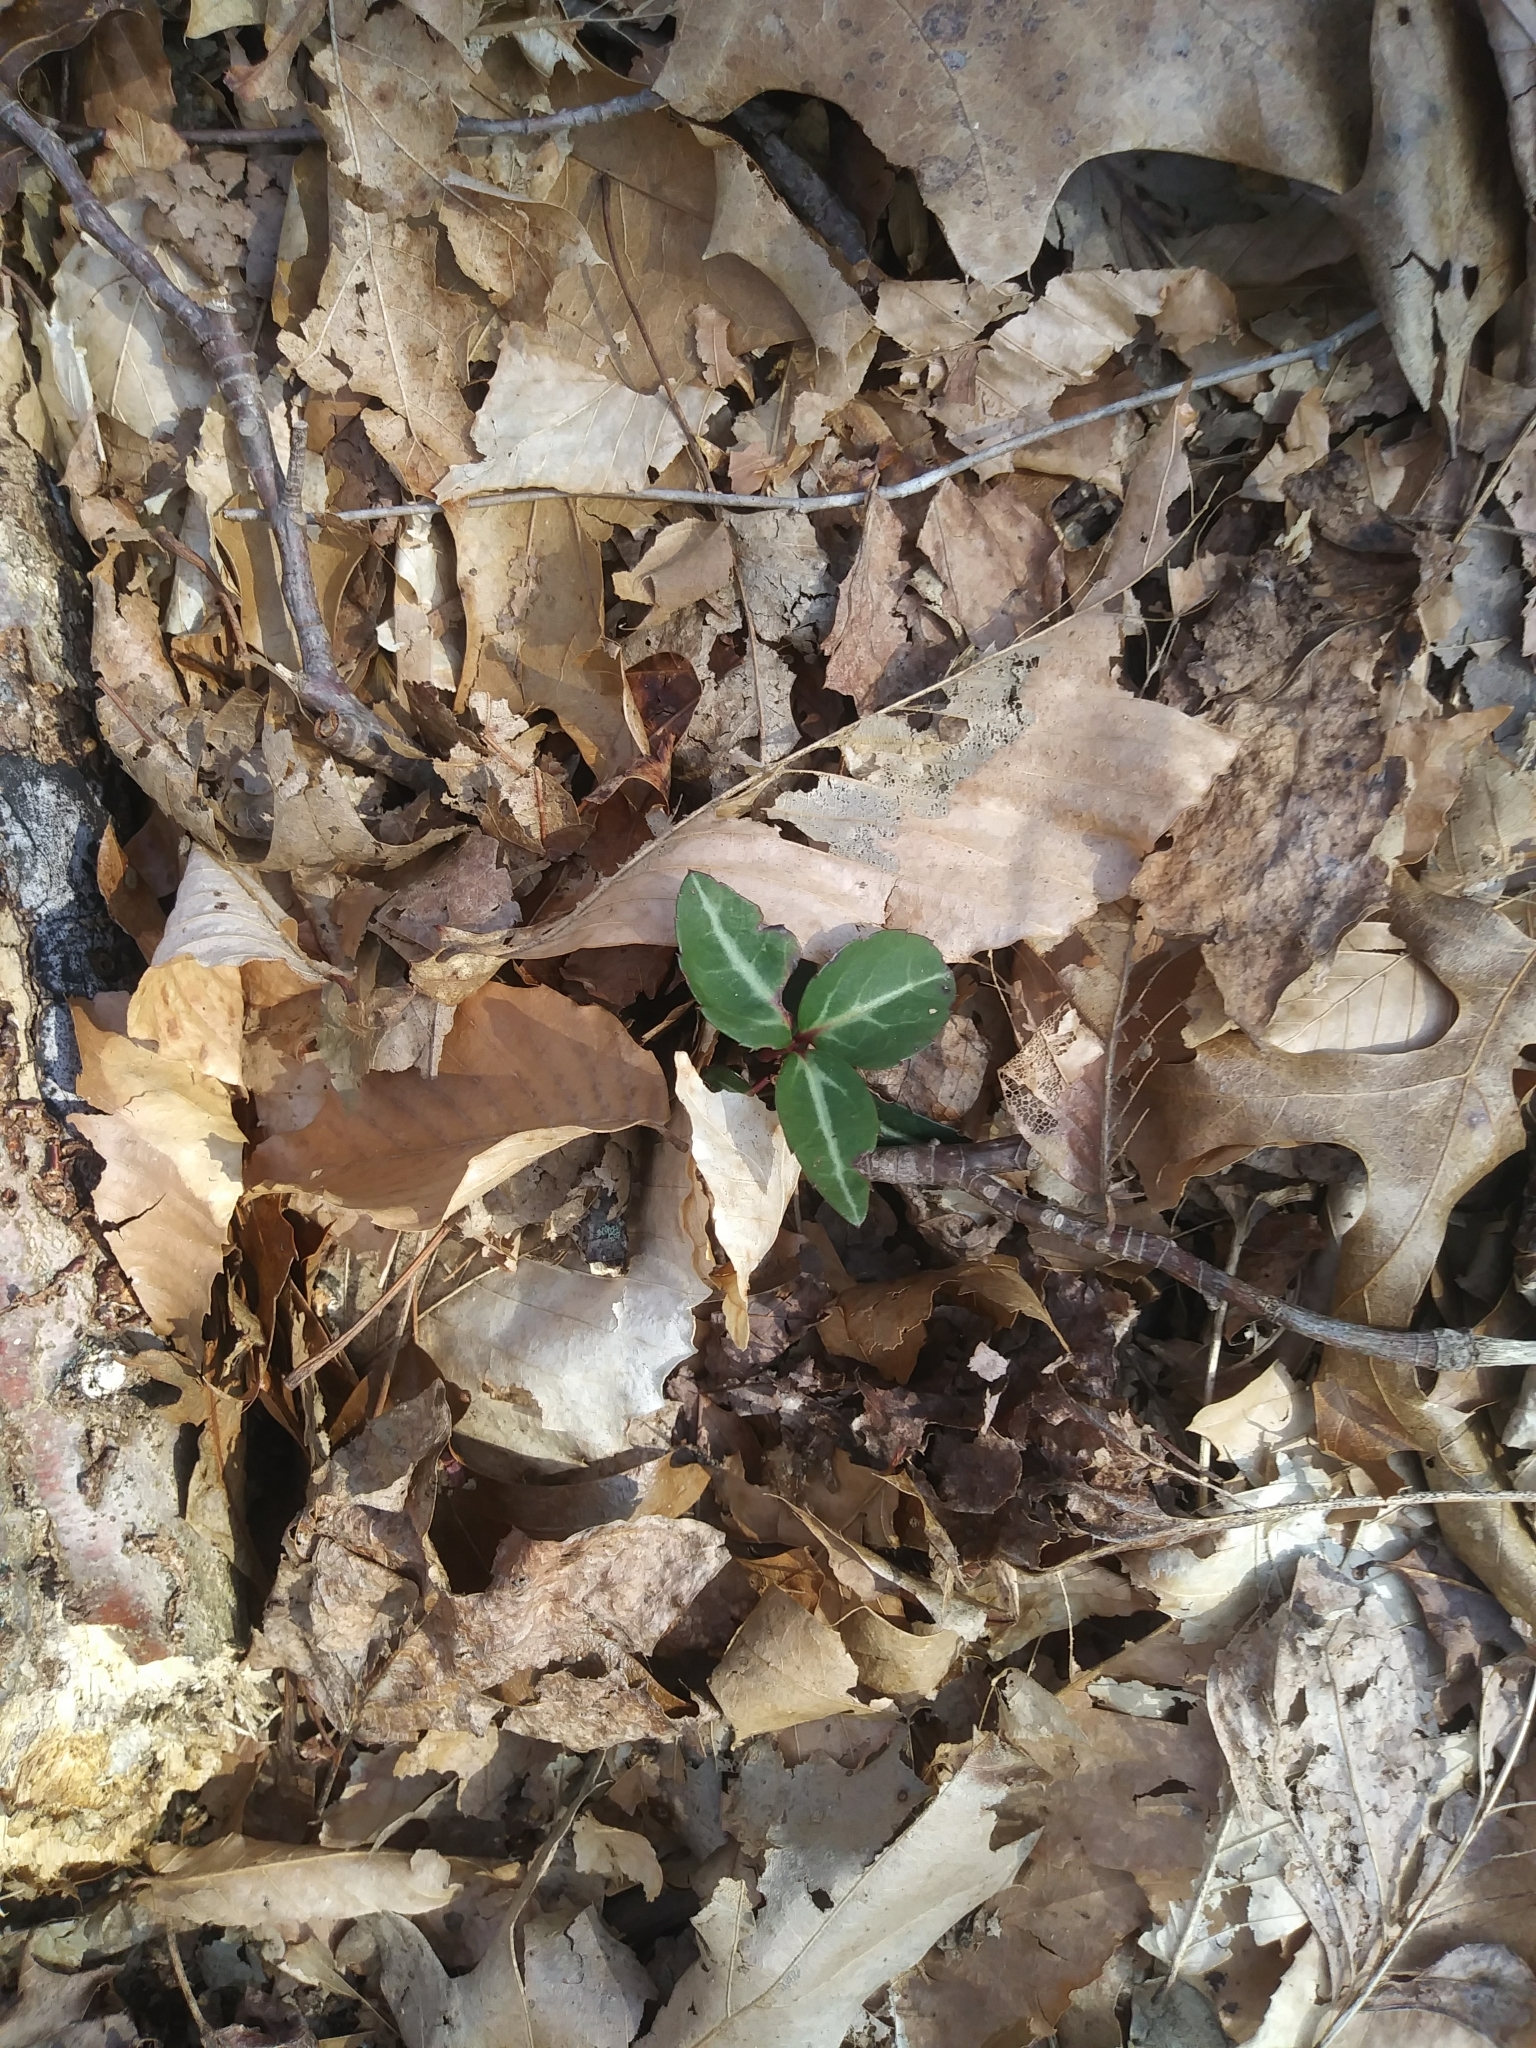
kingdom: Plantae
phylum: Tracheophyta
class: Magnoliopsida
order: Ericales
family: Ericaceae
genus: Chimaphila
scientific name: Chimaphila maculata
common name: Spotted pipsissewa
